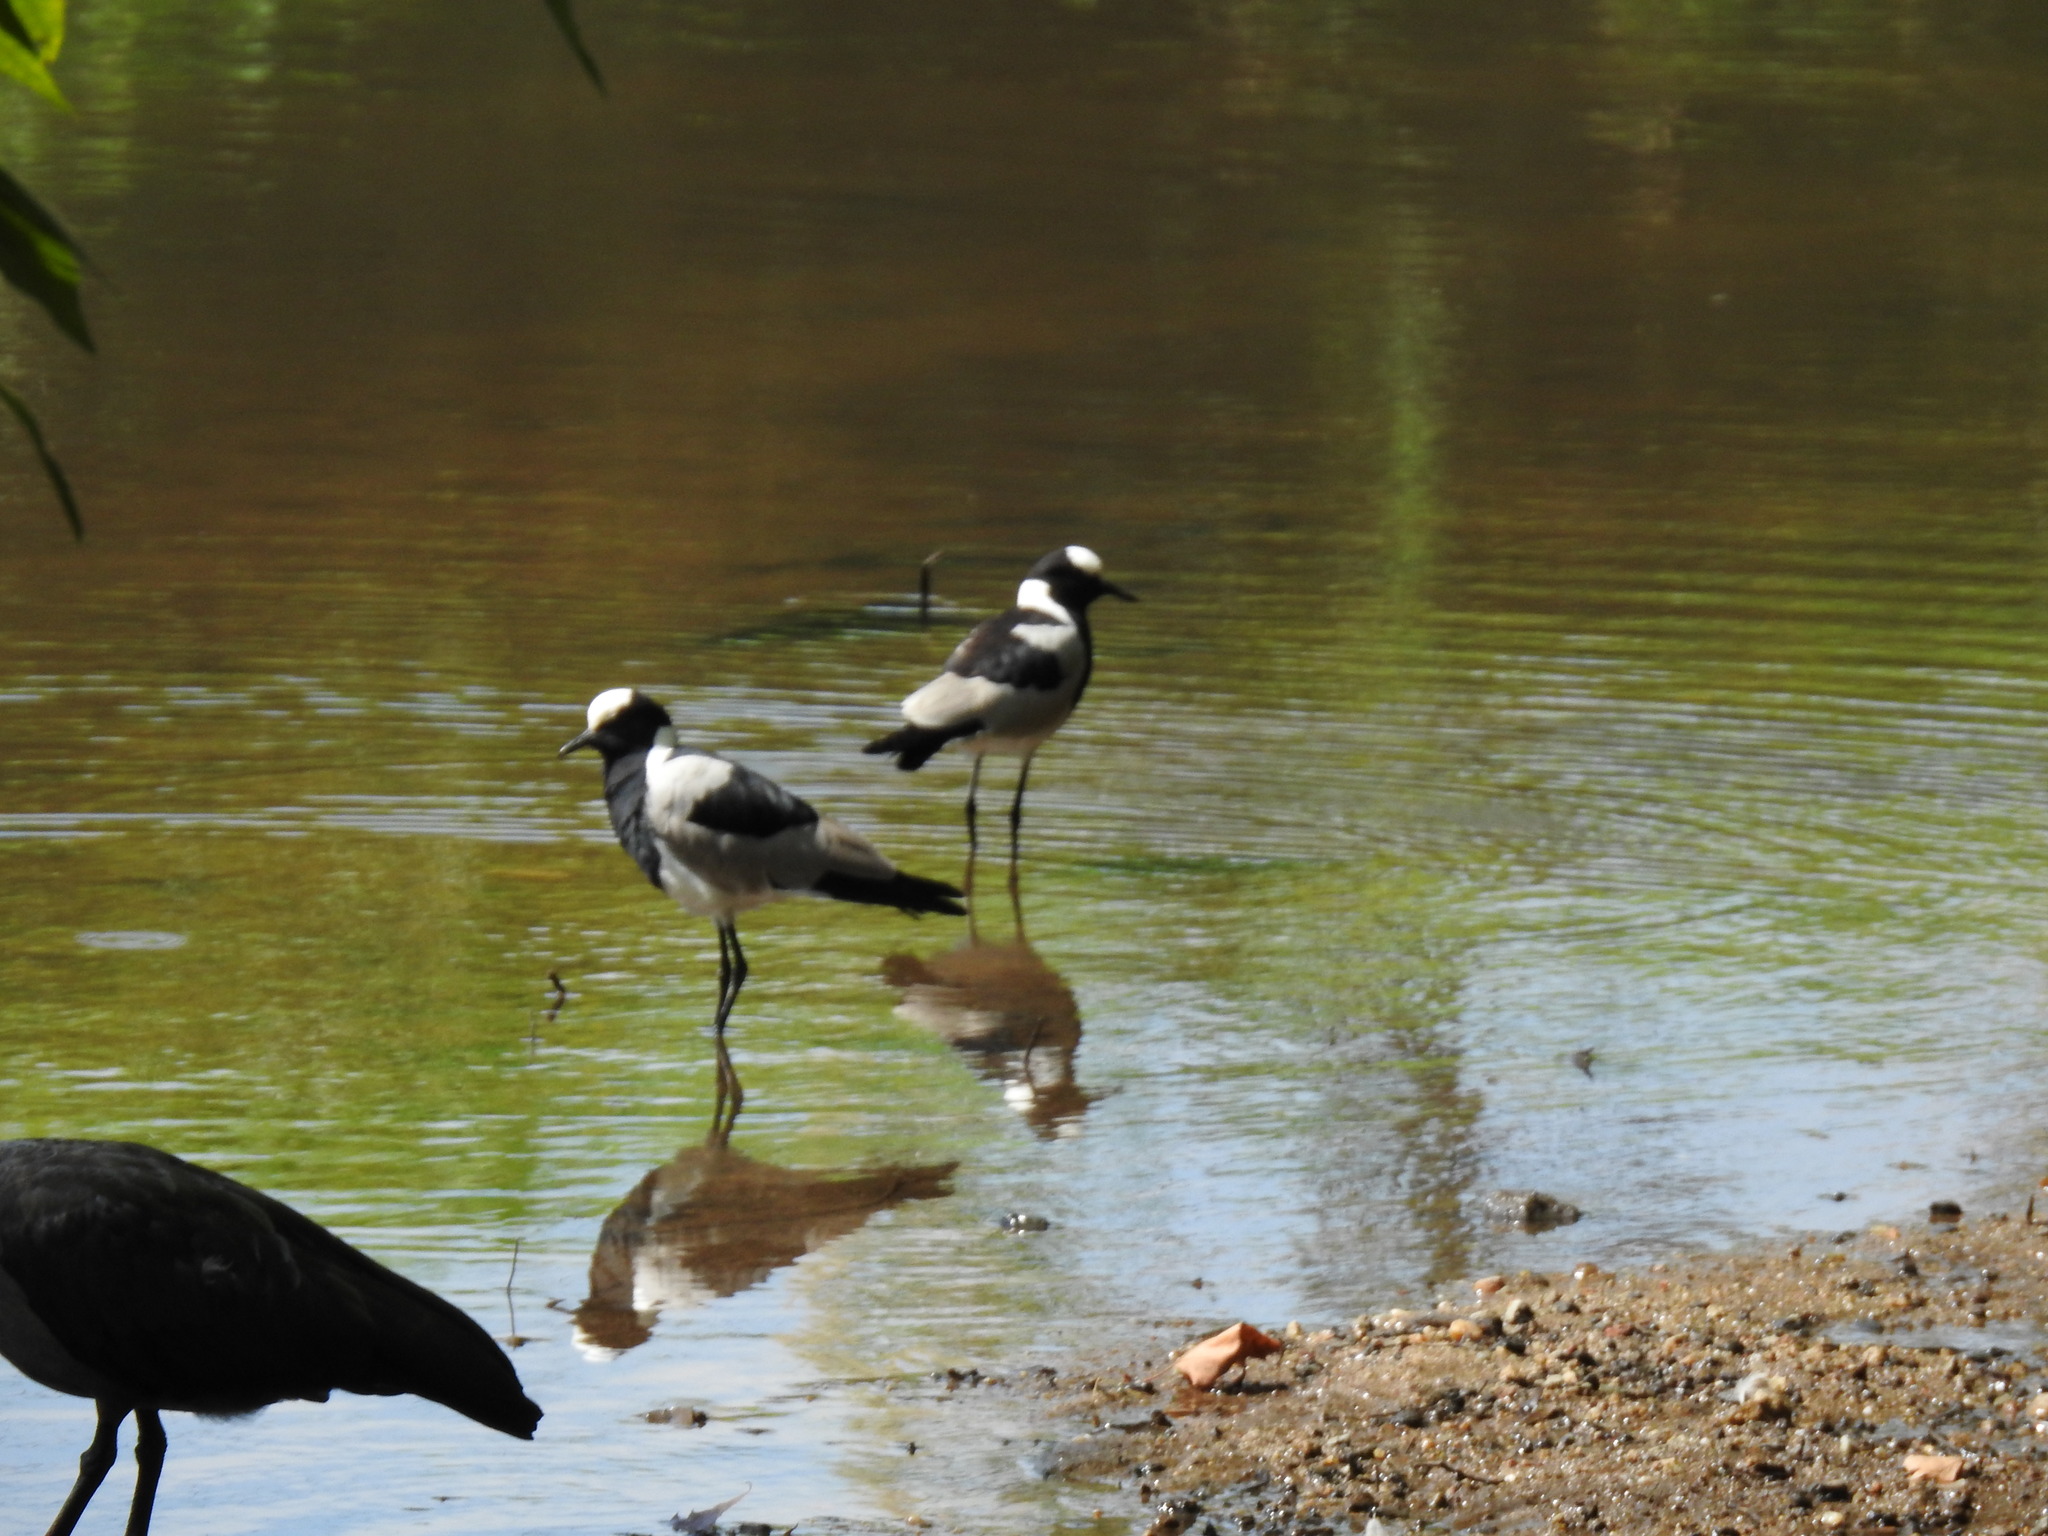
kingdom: Animalia
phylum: Chordata
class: Aves
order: Charadriiformes
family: Charadriidae
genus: Vanellus
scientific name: Vanellus armatus
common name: Blacksmith lapwing
